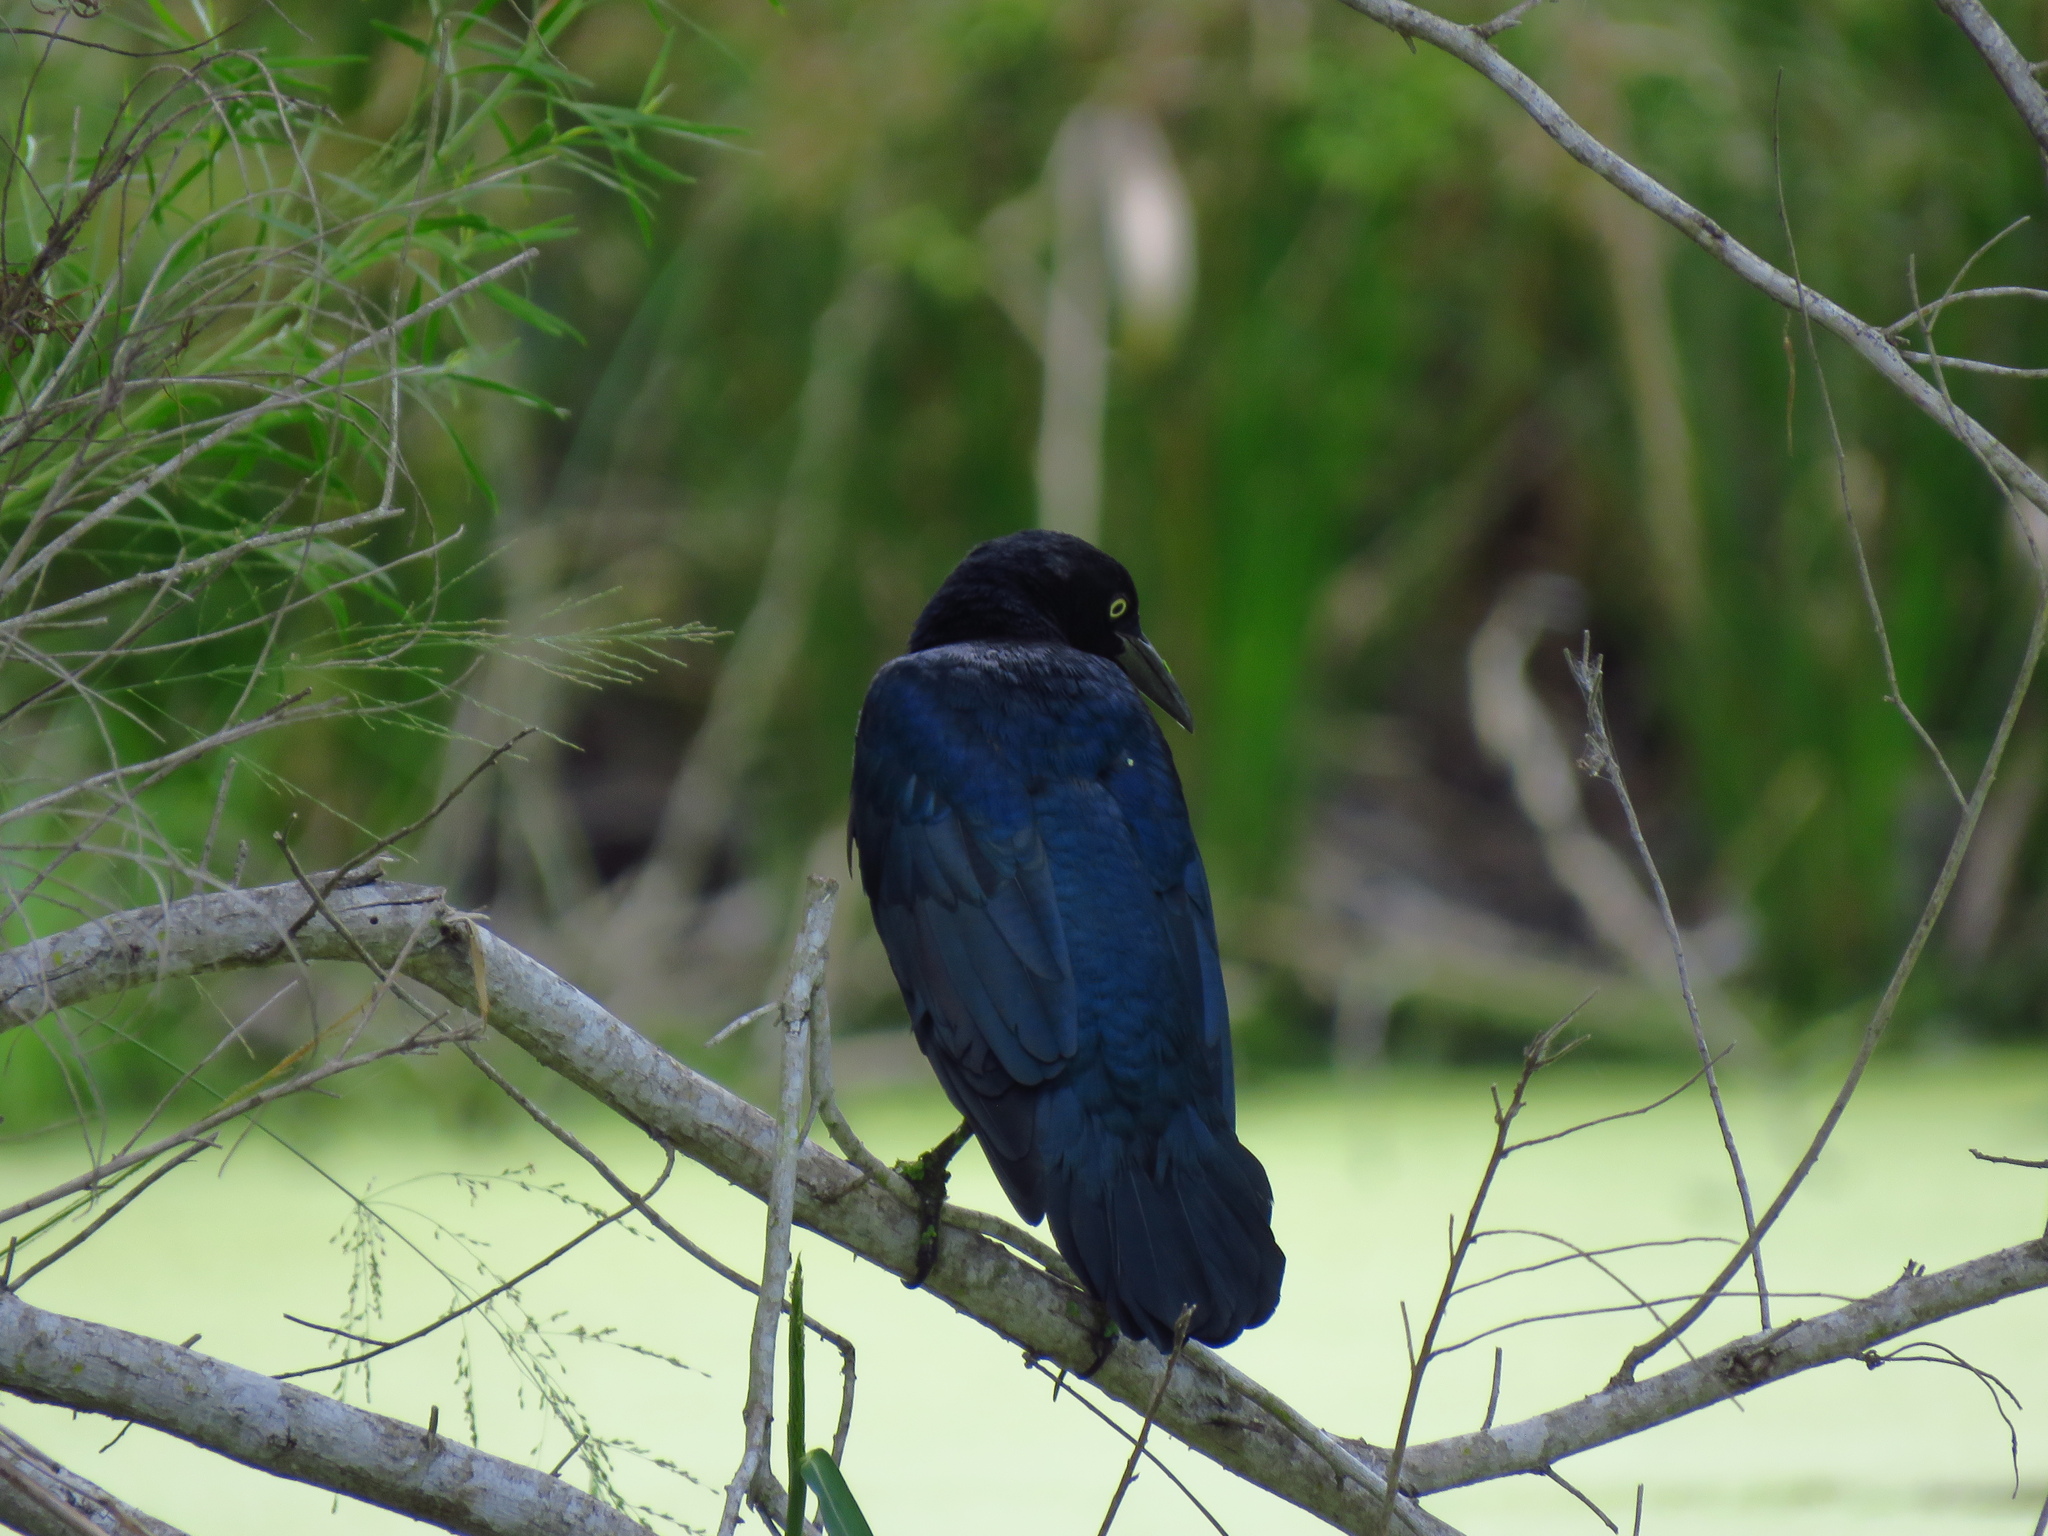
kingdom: Animalia
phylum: Chordata
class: Aves
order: Passeriformes
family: Icteridae
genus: Quiscalus
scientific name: Quiscalus mexicanus
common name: Great-tailed grackle
